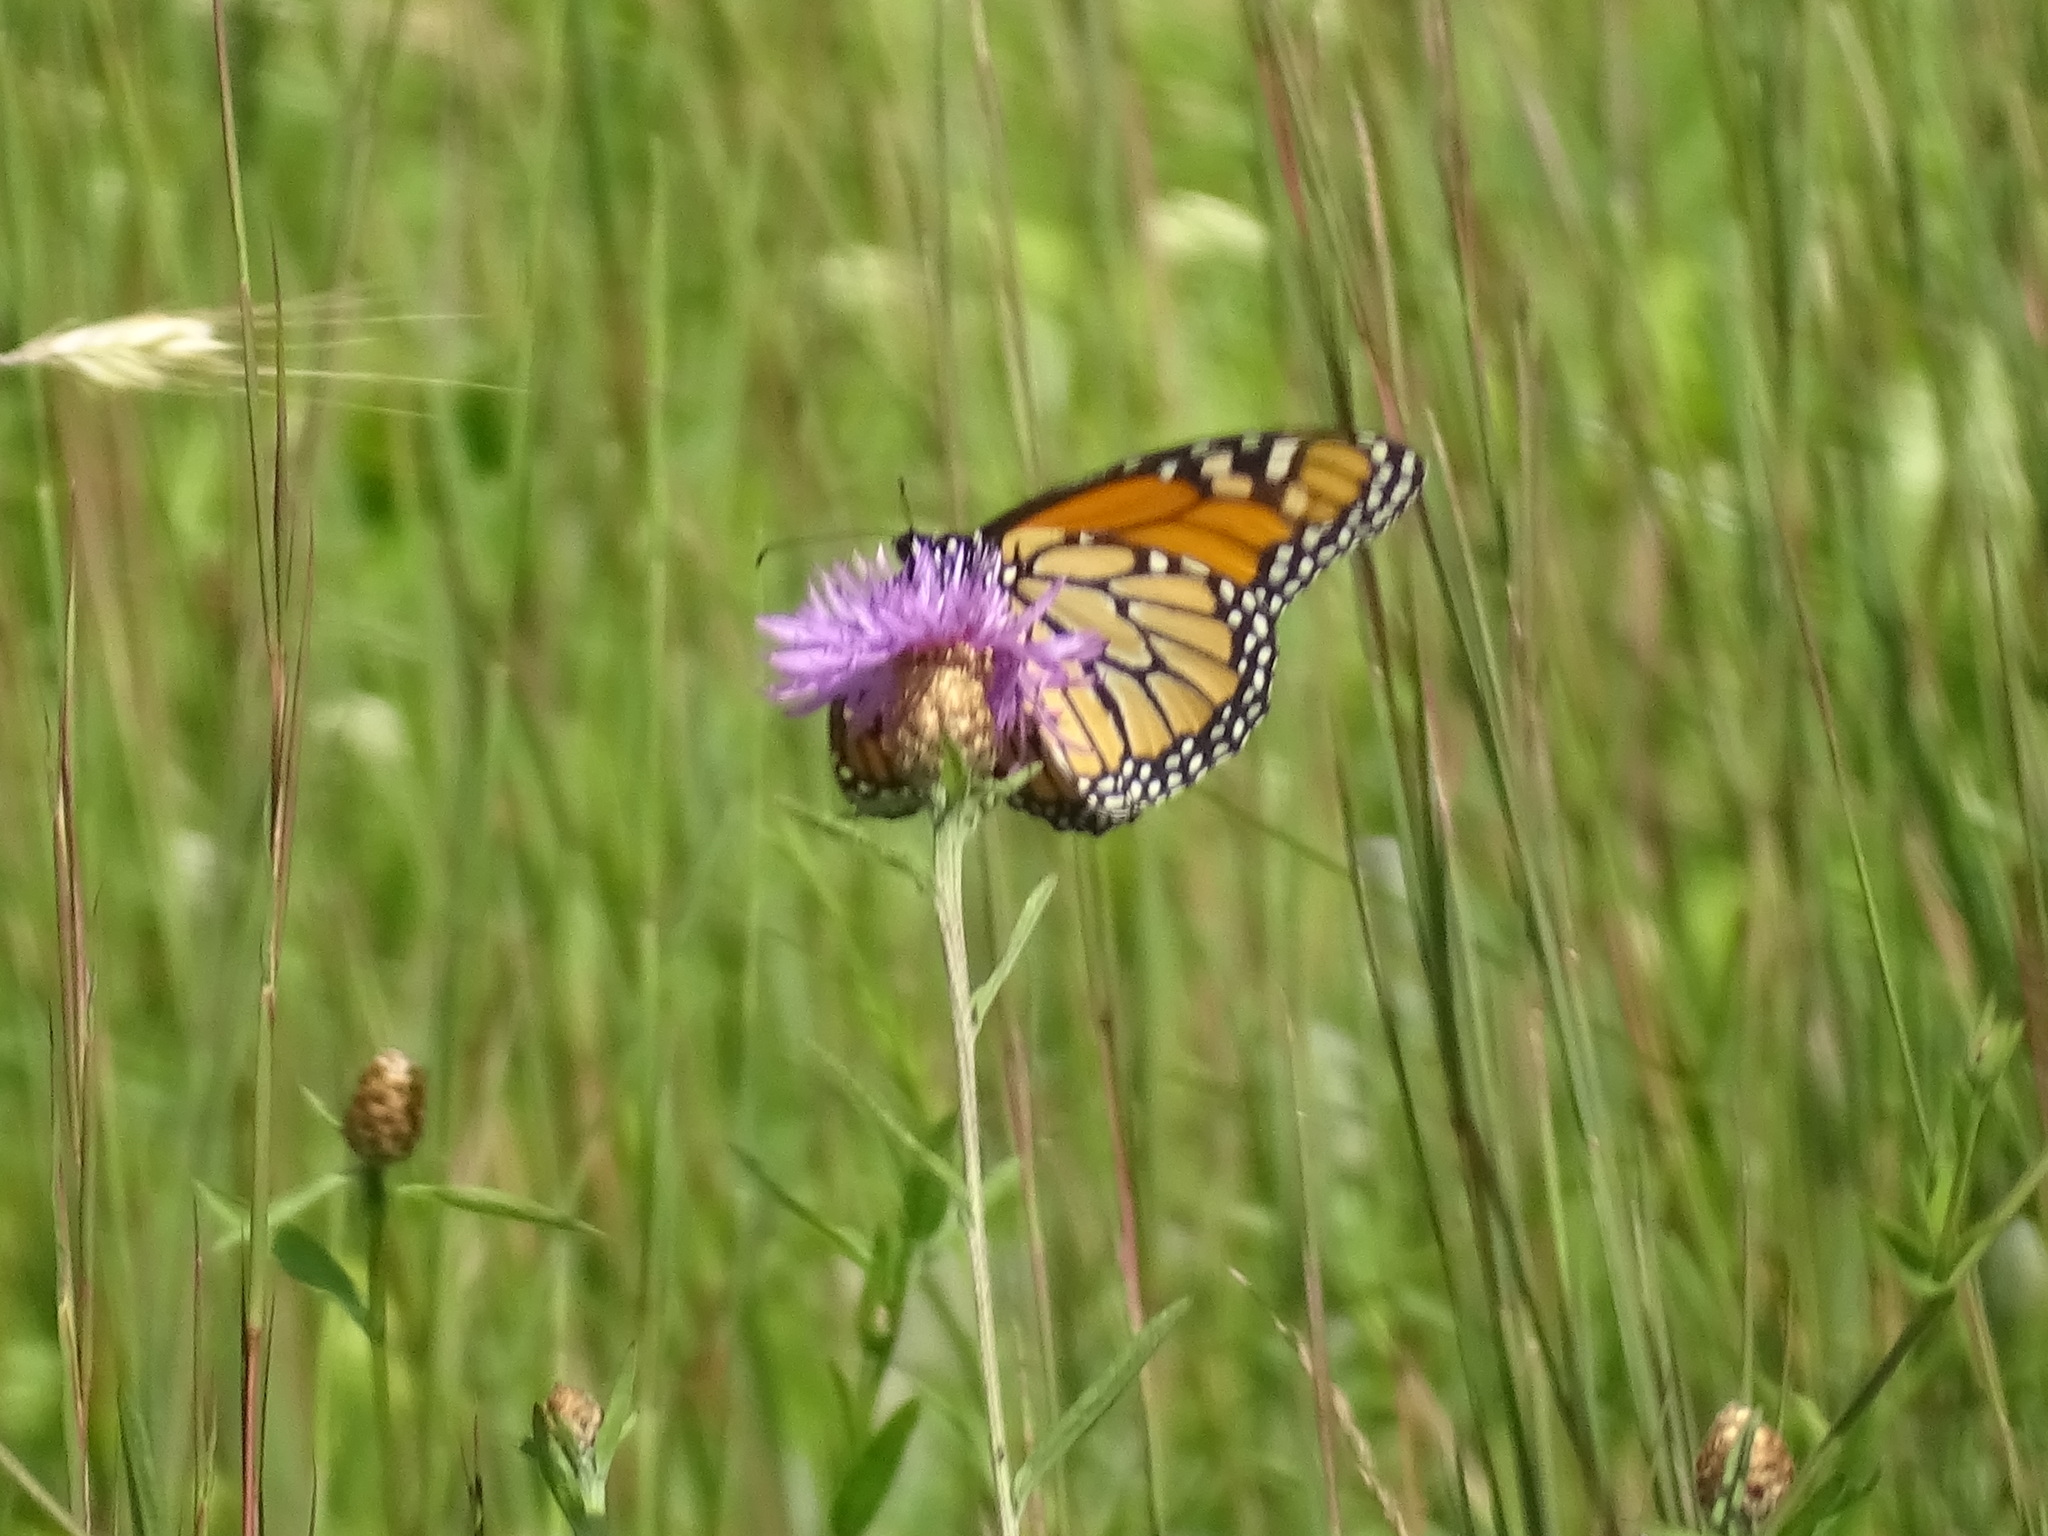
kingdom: Animalia
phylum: Arthropoda
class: Insecta
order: Lepidoptera
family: Nymphalidae
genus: Danaus
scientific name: Danaus plexippus
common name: Monarch
